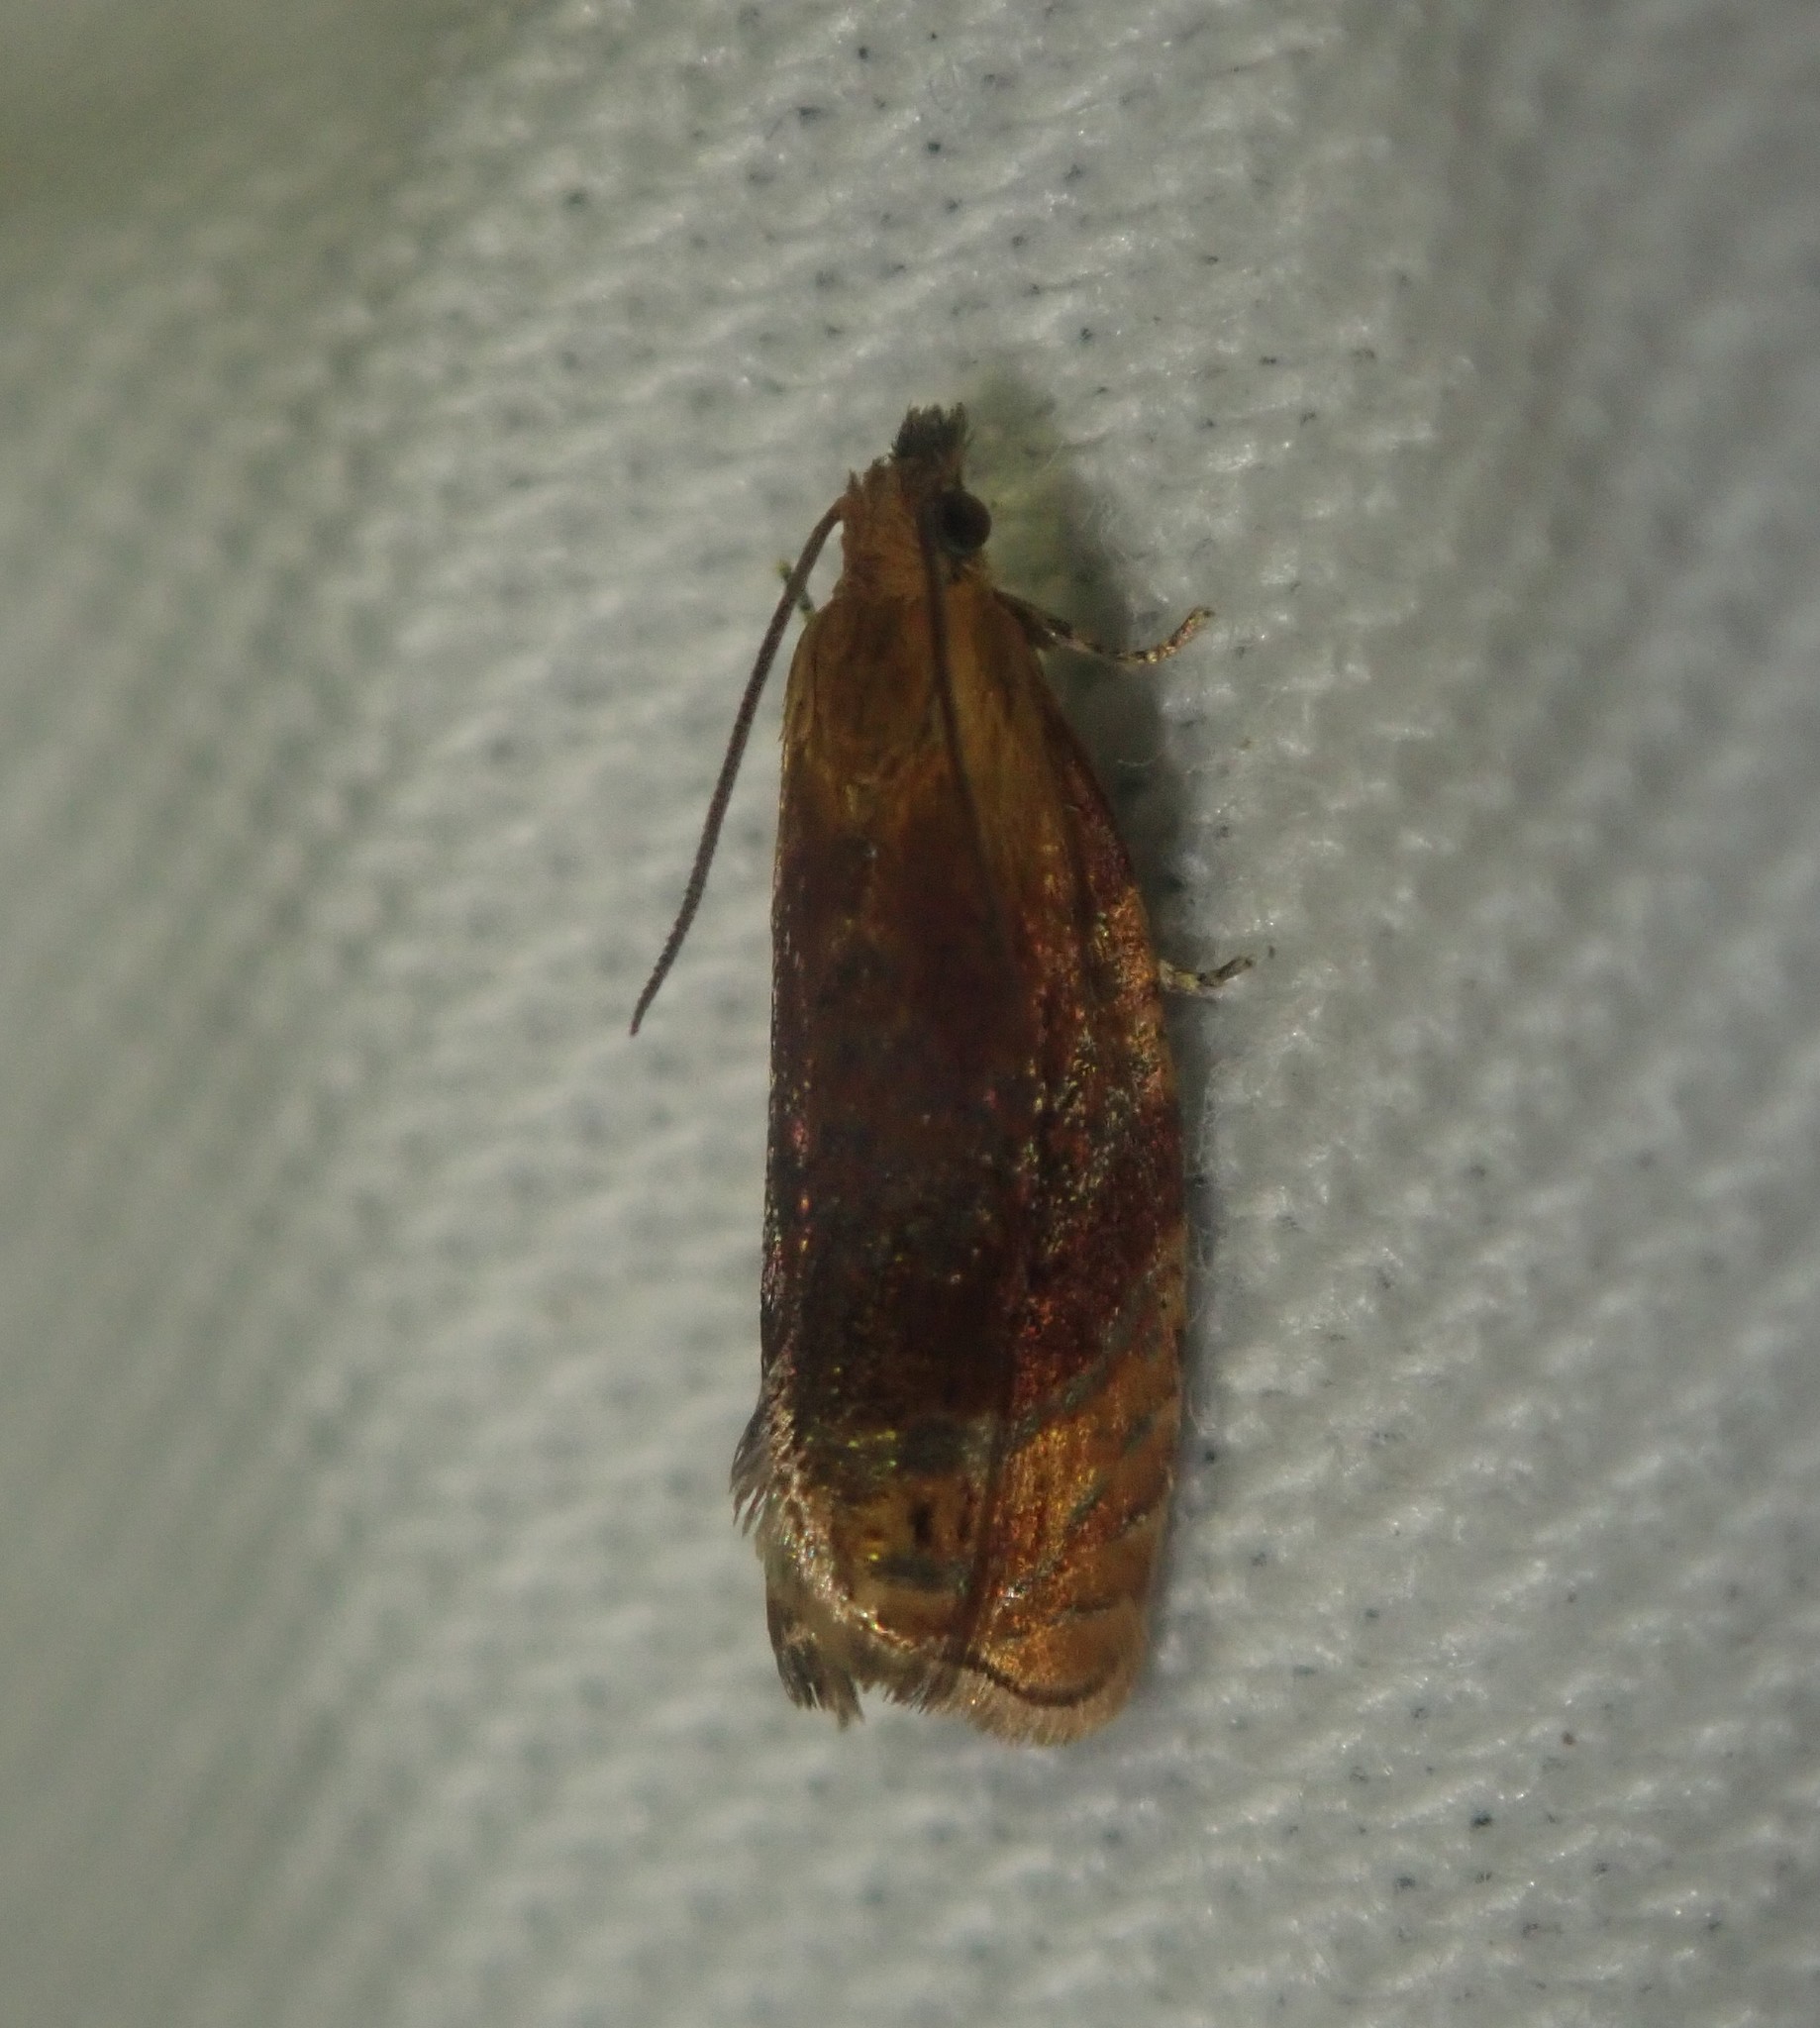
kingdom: Animalia
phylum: Arthropoda
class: Insecta
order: Lepidoptera
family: Tortricidae
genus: Eucosmomorpha
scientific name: Eucosmomorpha albersana
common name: Honeysuckle bell
